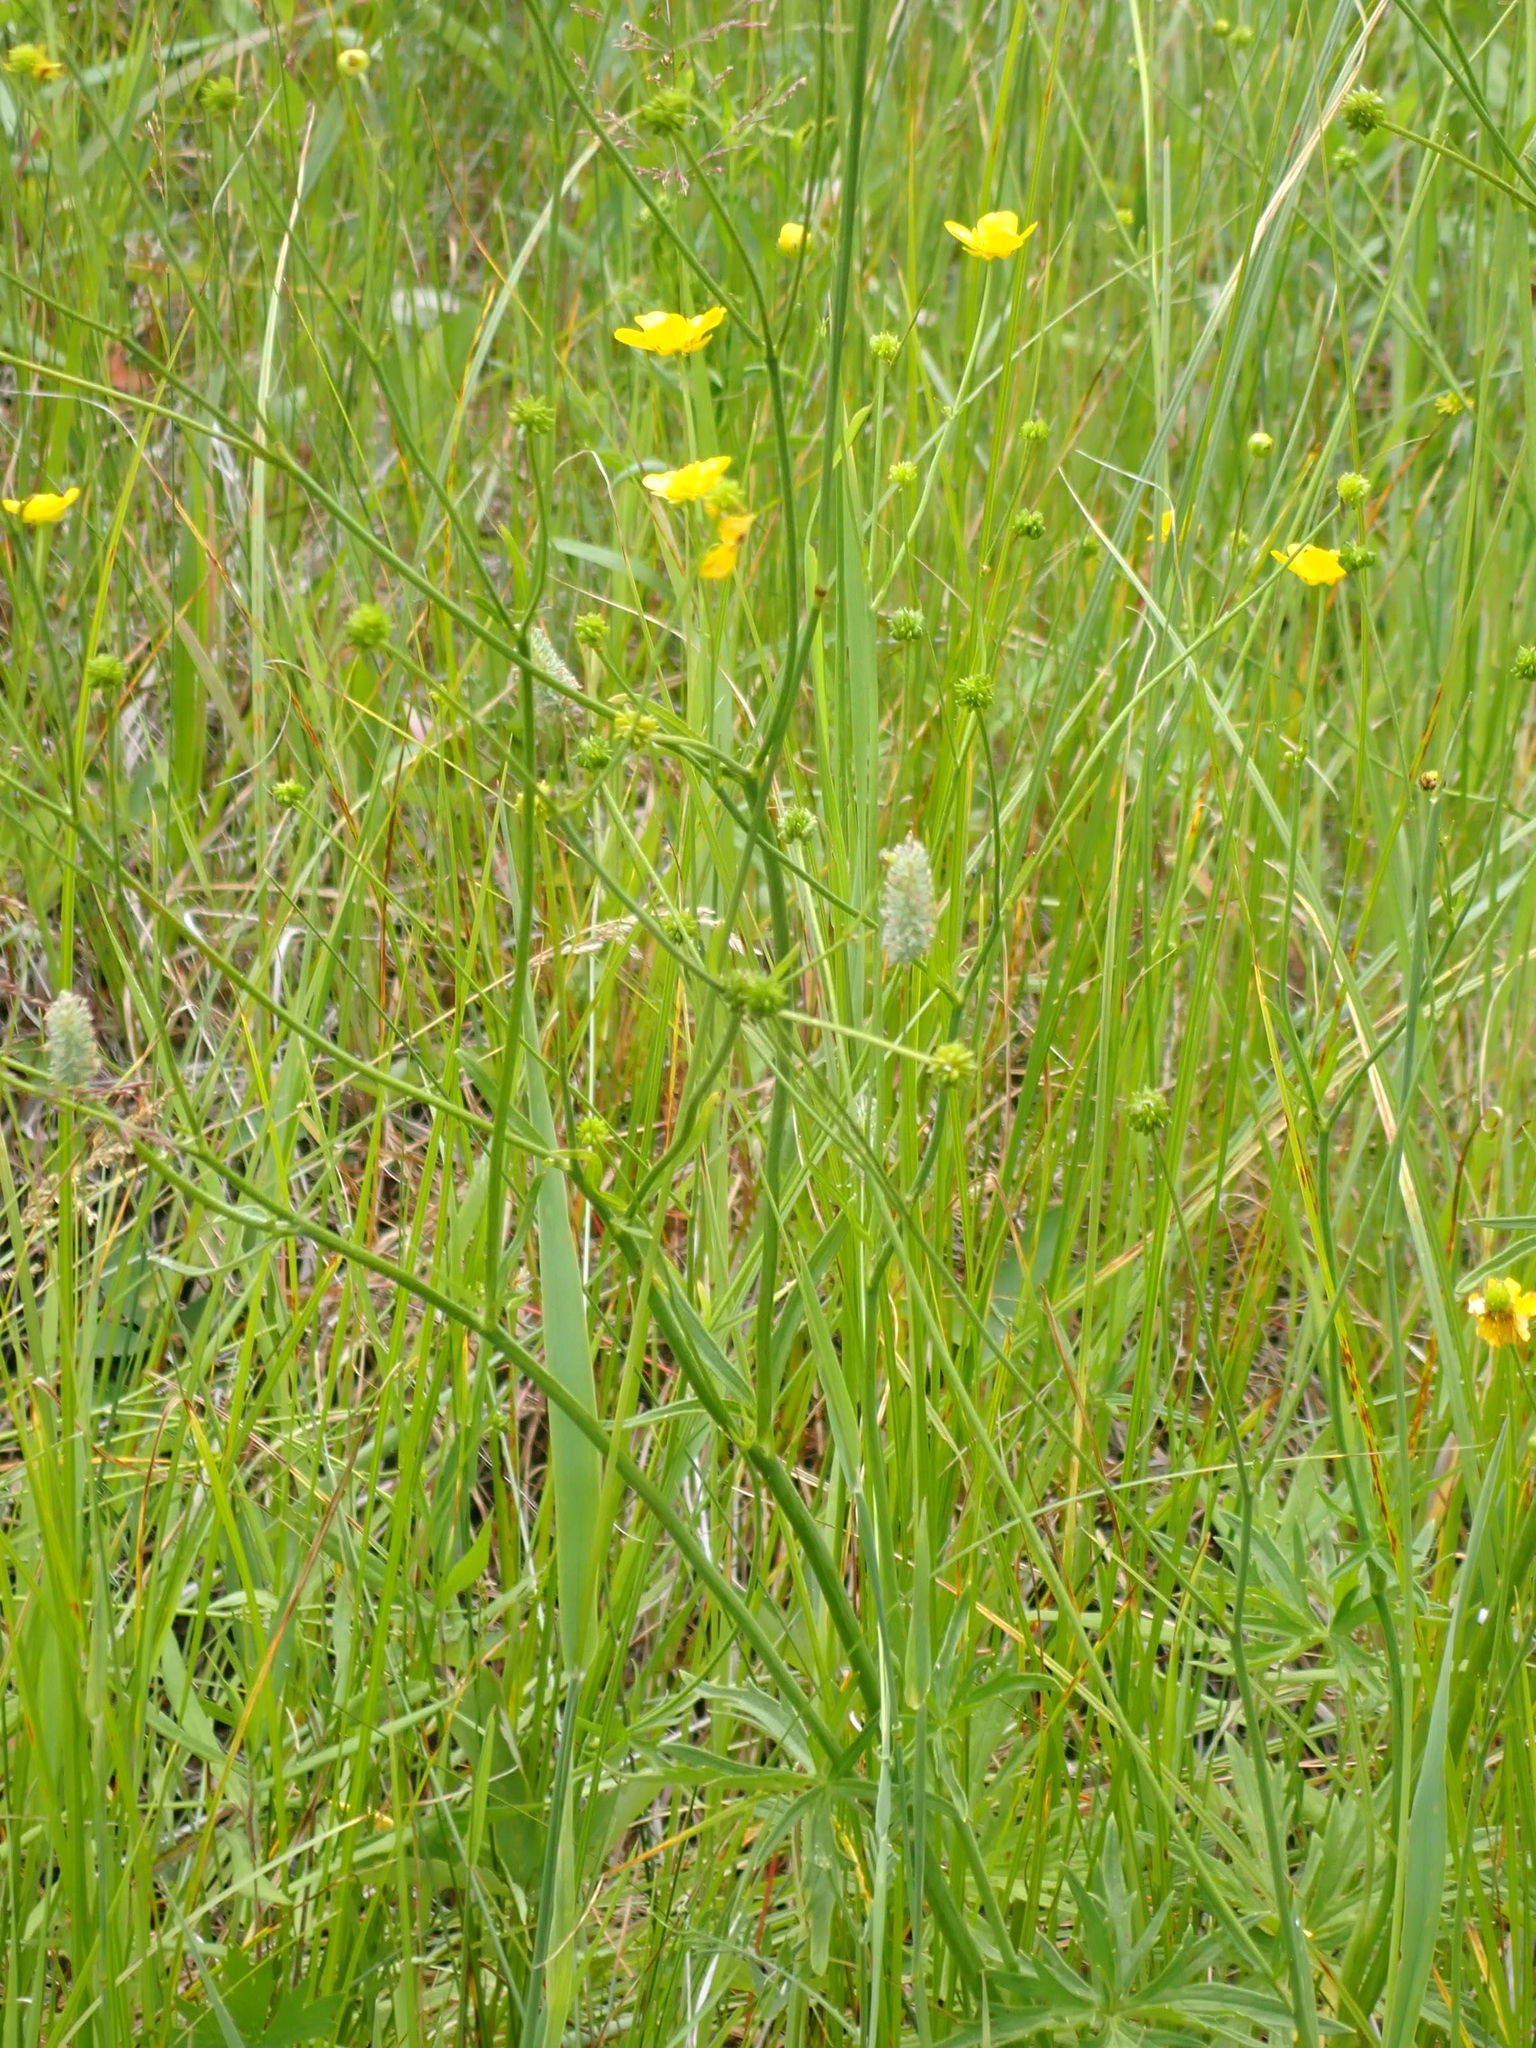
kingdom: Plantae
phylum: Tracheophyta
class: Magnoliopsida
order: Ranunculales
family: Ranunculaceae
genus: Ranunculus
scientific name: Ranunculus acris
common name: Meadow buttercup
